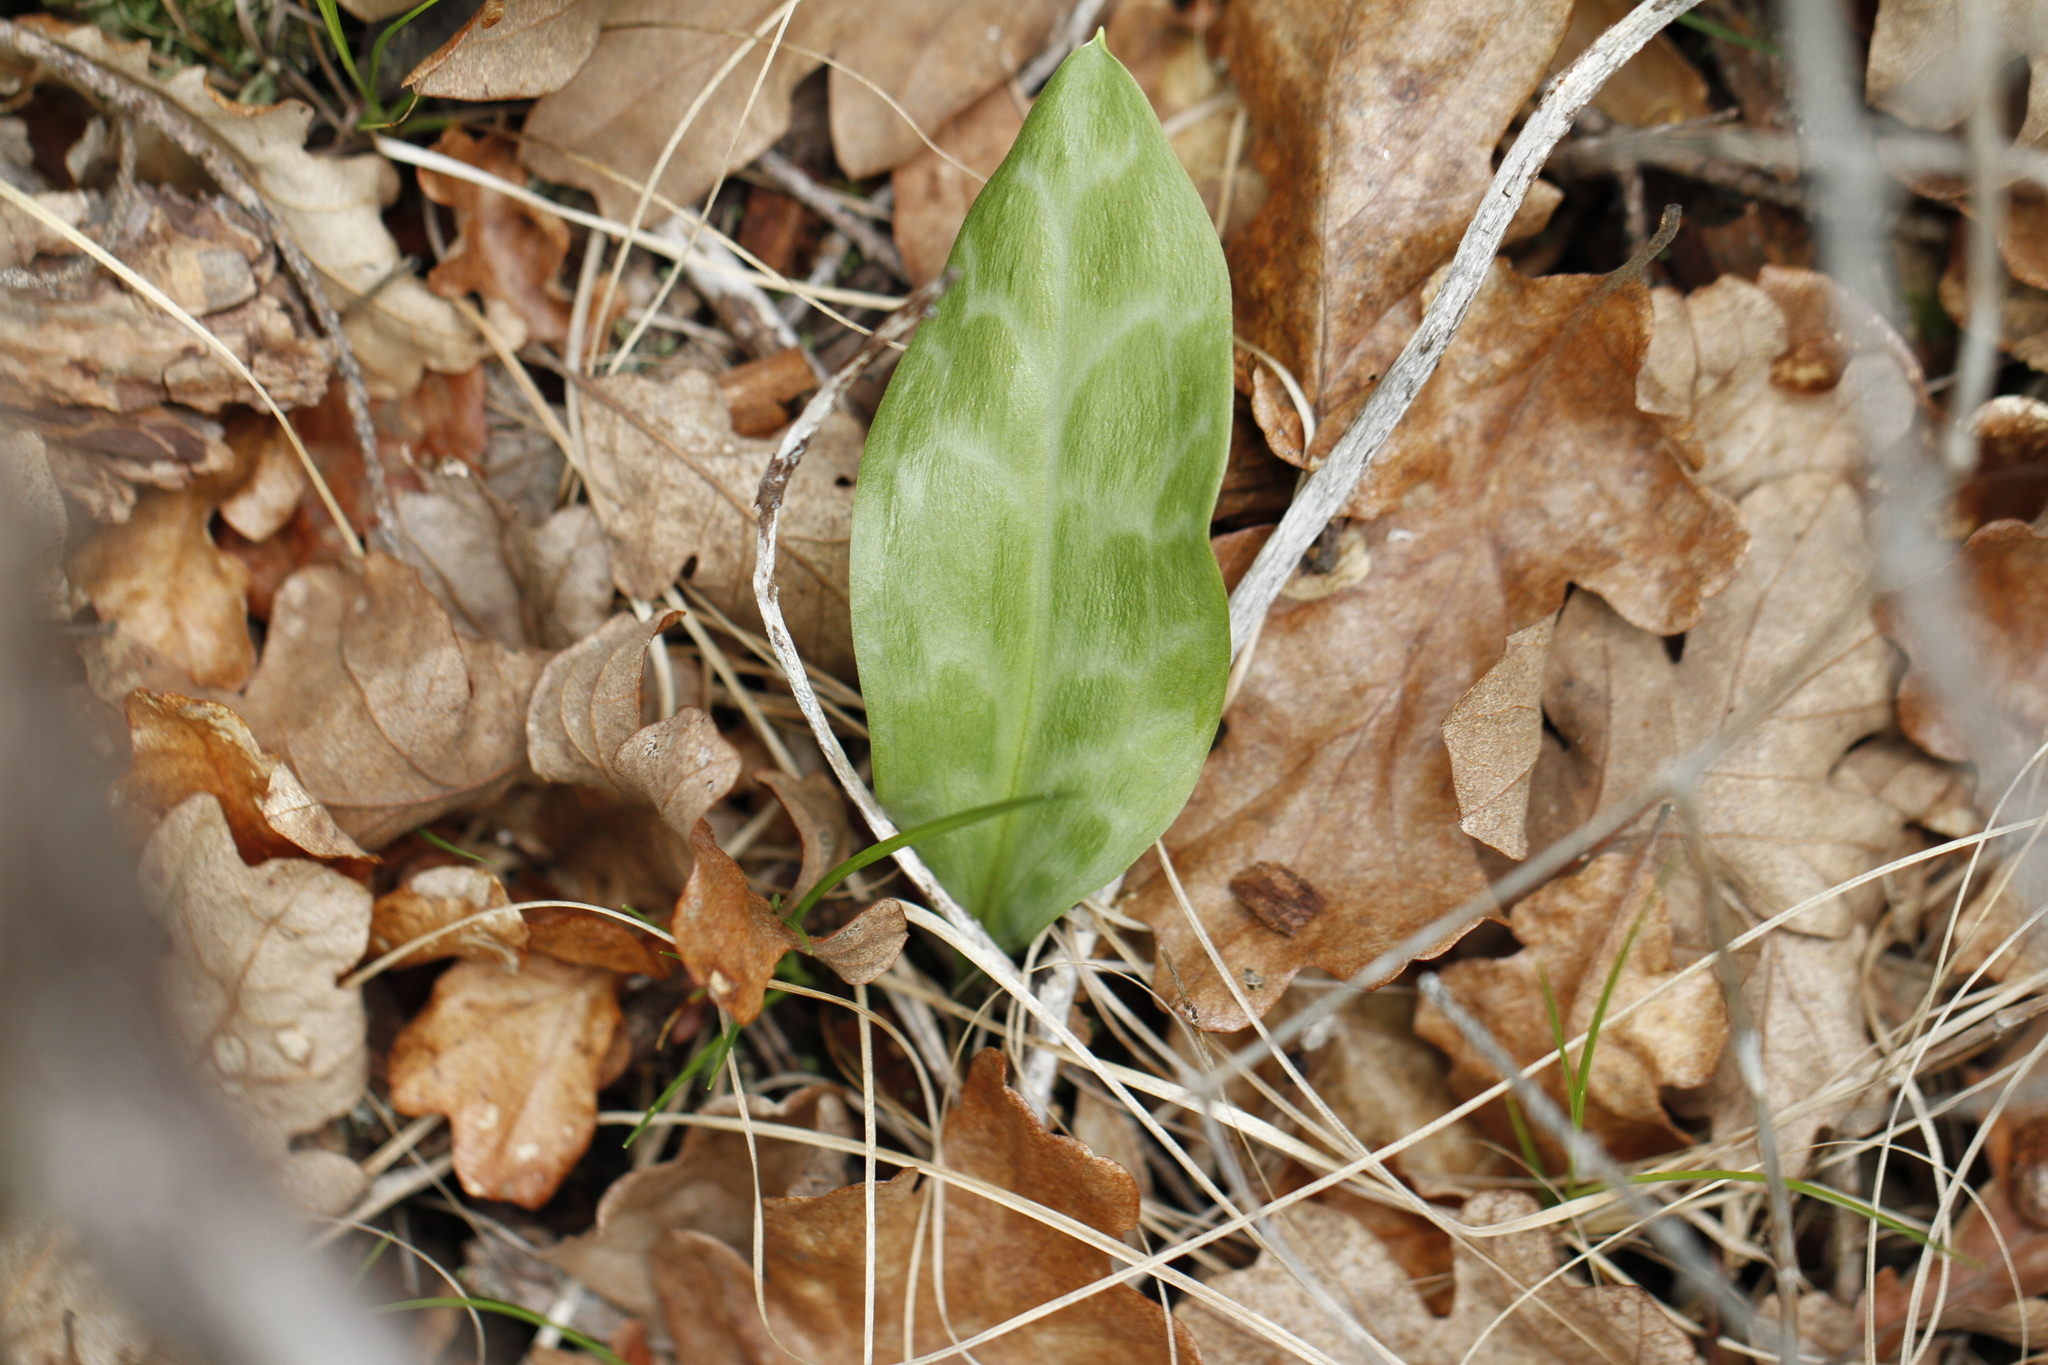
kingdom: Plantae
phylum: Tracheophyta
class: Liliopsida
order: Liliales
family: Liliaceae
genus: Erythronium
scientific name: Erythronium oregonum
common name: Giant adder's-tongue
